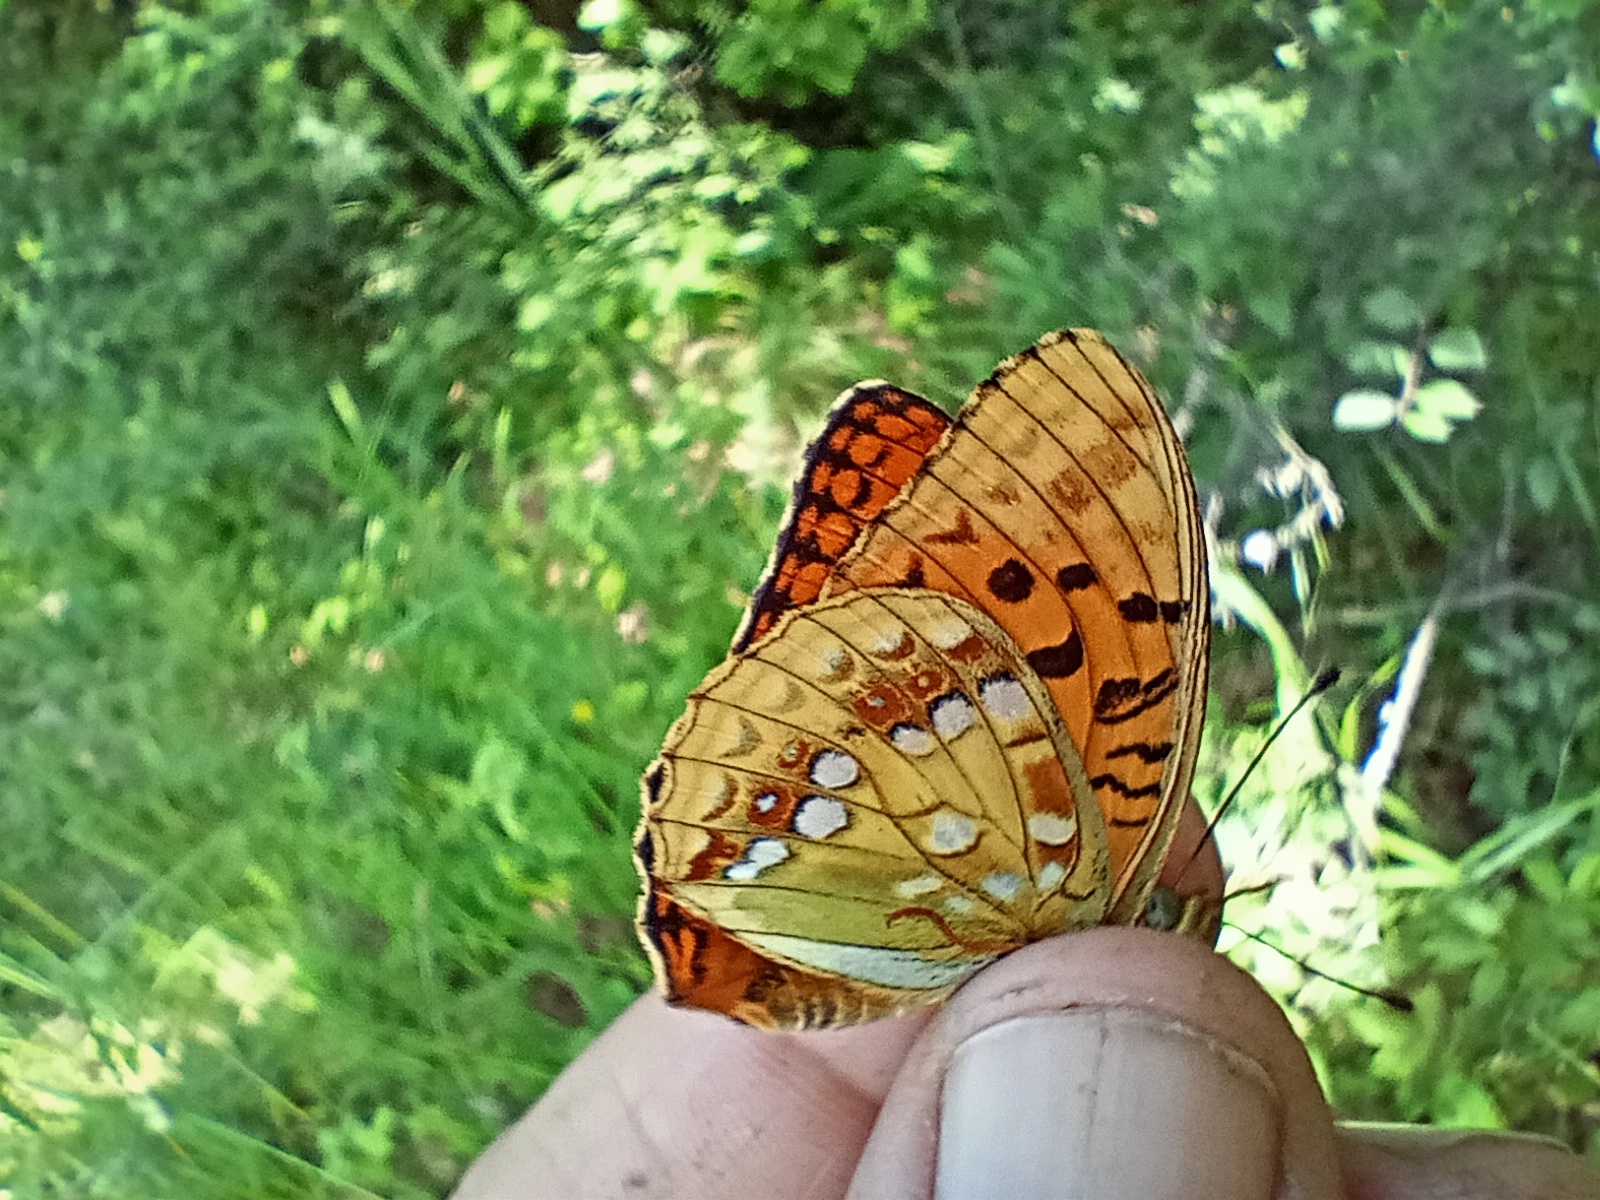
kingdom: Animalia
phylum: Arthropoda
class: Insecta
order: Lepidoptera
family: Nymphalidae
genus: Fabriciana
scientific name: Fabriciana adippe
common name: High brown fritillary
